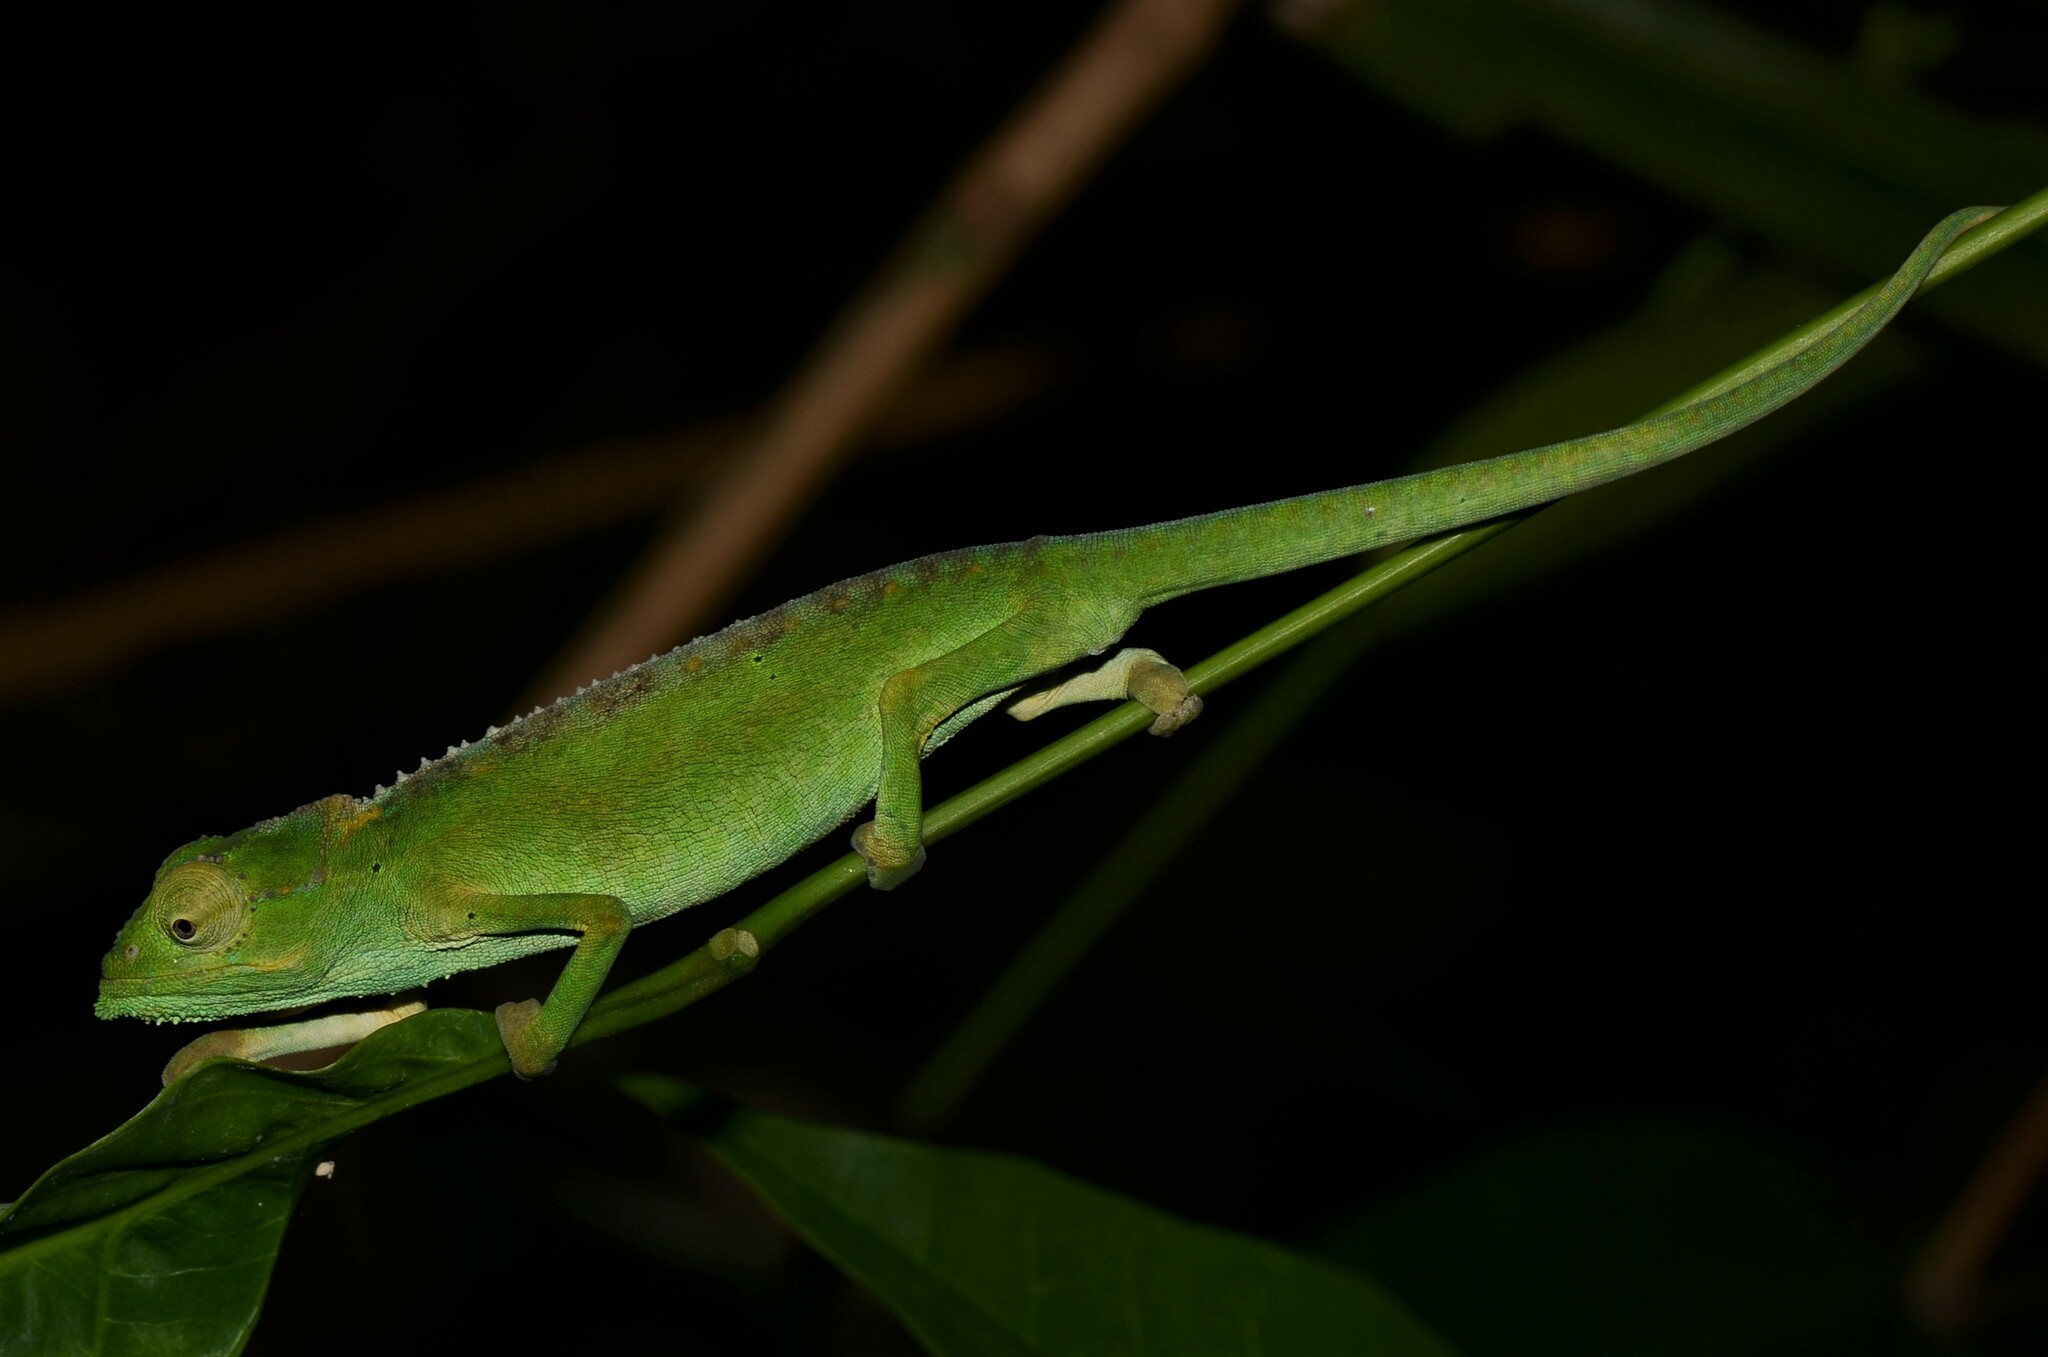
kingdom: Animalia
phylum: Chordata
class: Squamata
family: Chamaeleonidae
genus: Archaius
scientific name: Archaius tigris
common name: Seychelles tiger chameleon
